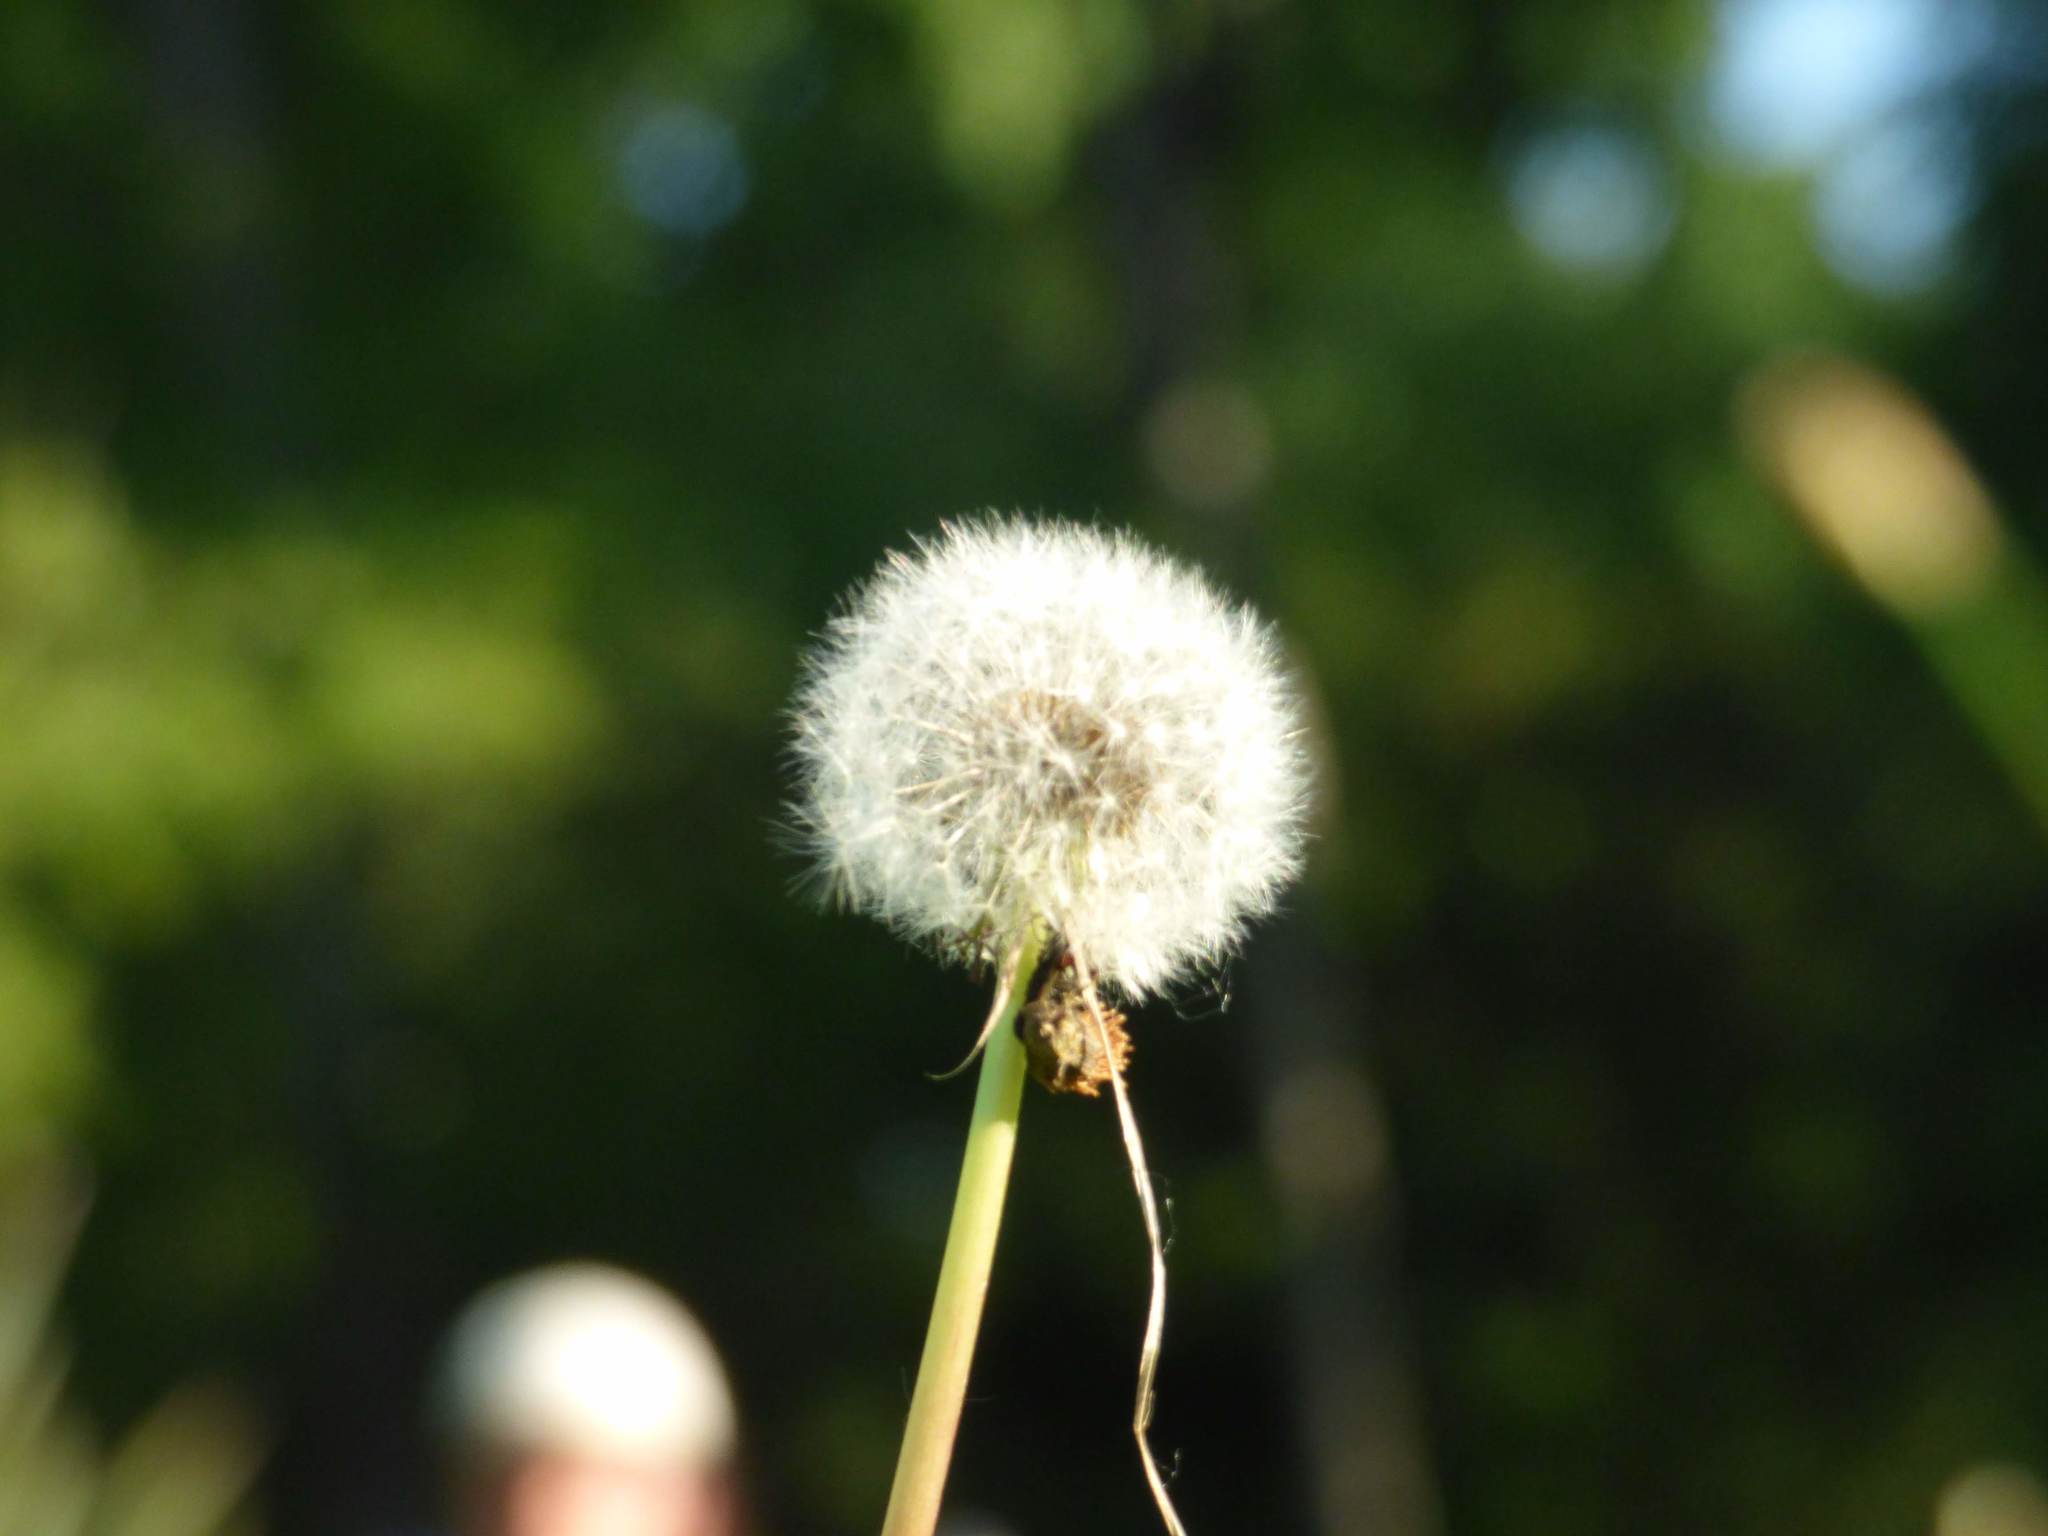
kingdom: Plantae
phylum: Tracheophyta
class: Magnoliopsida
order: Asterales
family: Asteraceae
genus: Taraxacum
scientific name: Taraxacum officinale
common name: Common dandelion
